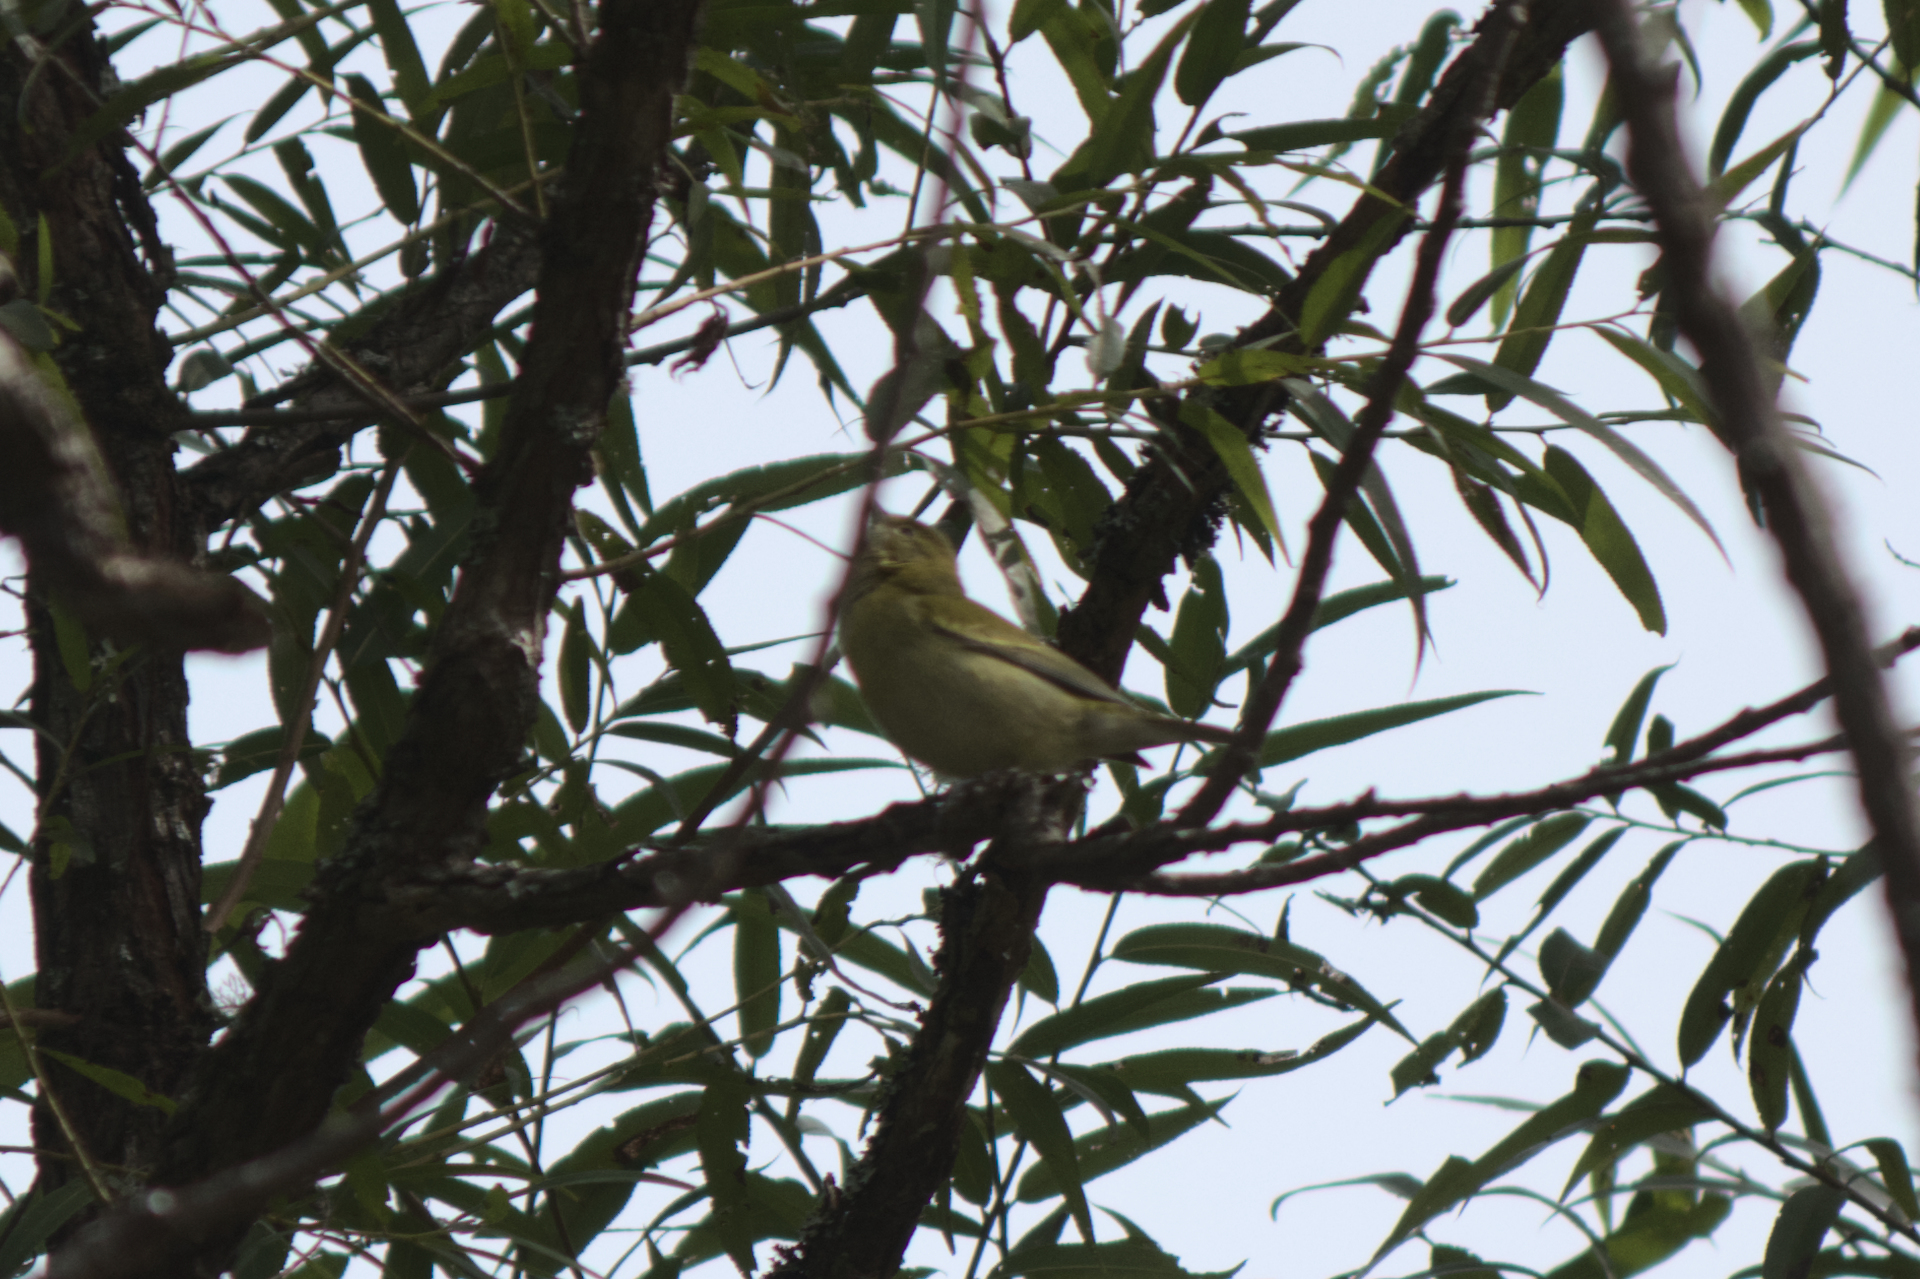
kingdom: Animalia
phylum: Chordata
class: Aves
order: Passeriformes
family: Parulidae
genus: Leiothlypis
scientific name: Leiothlypis peregrina
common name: Tennessee warbler
